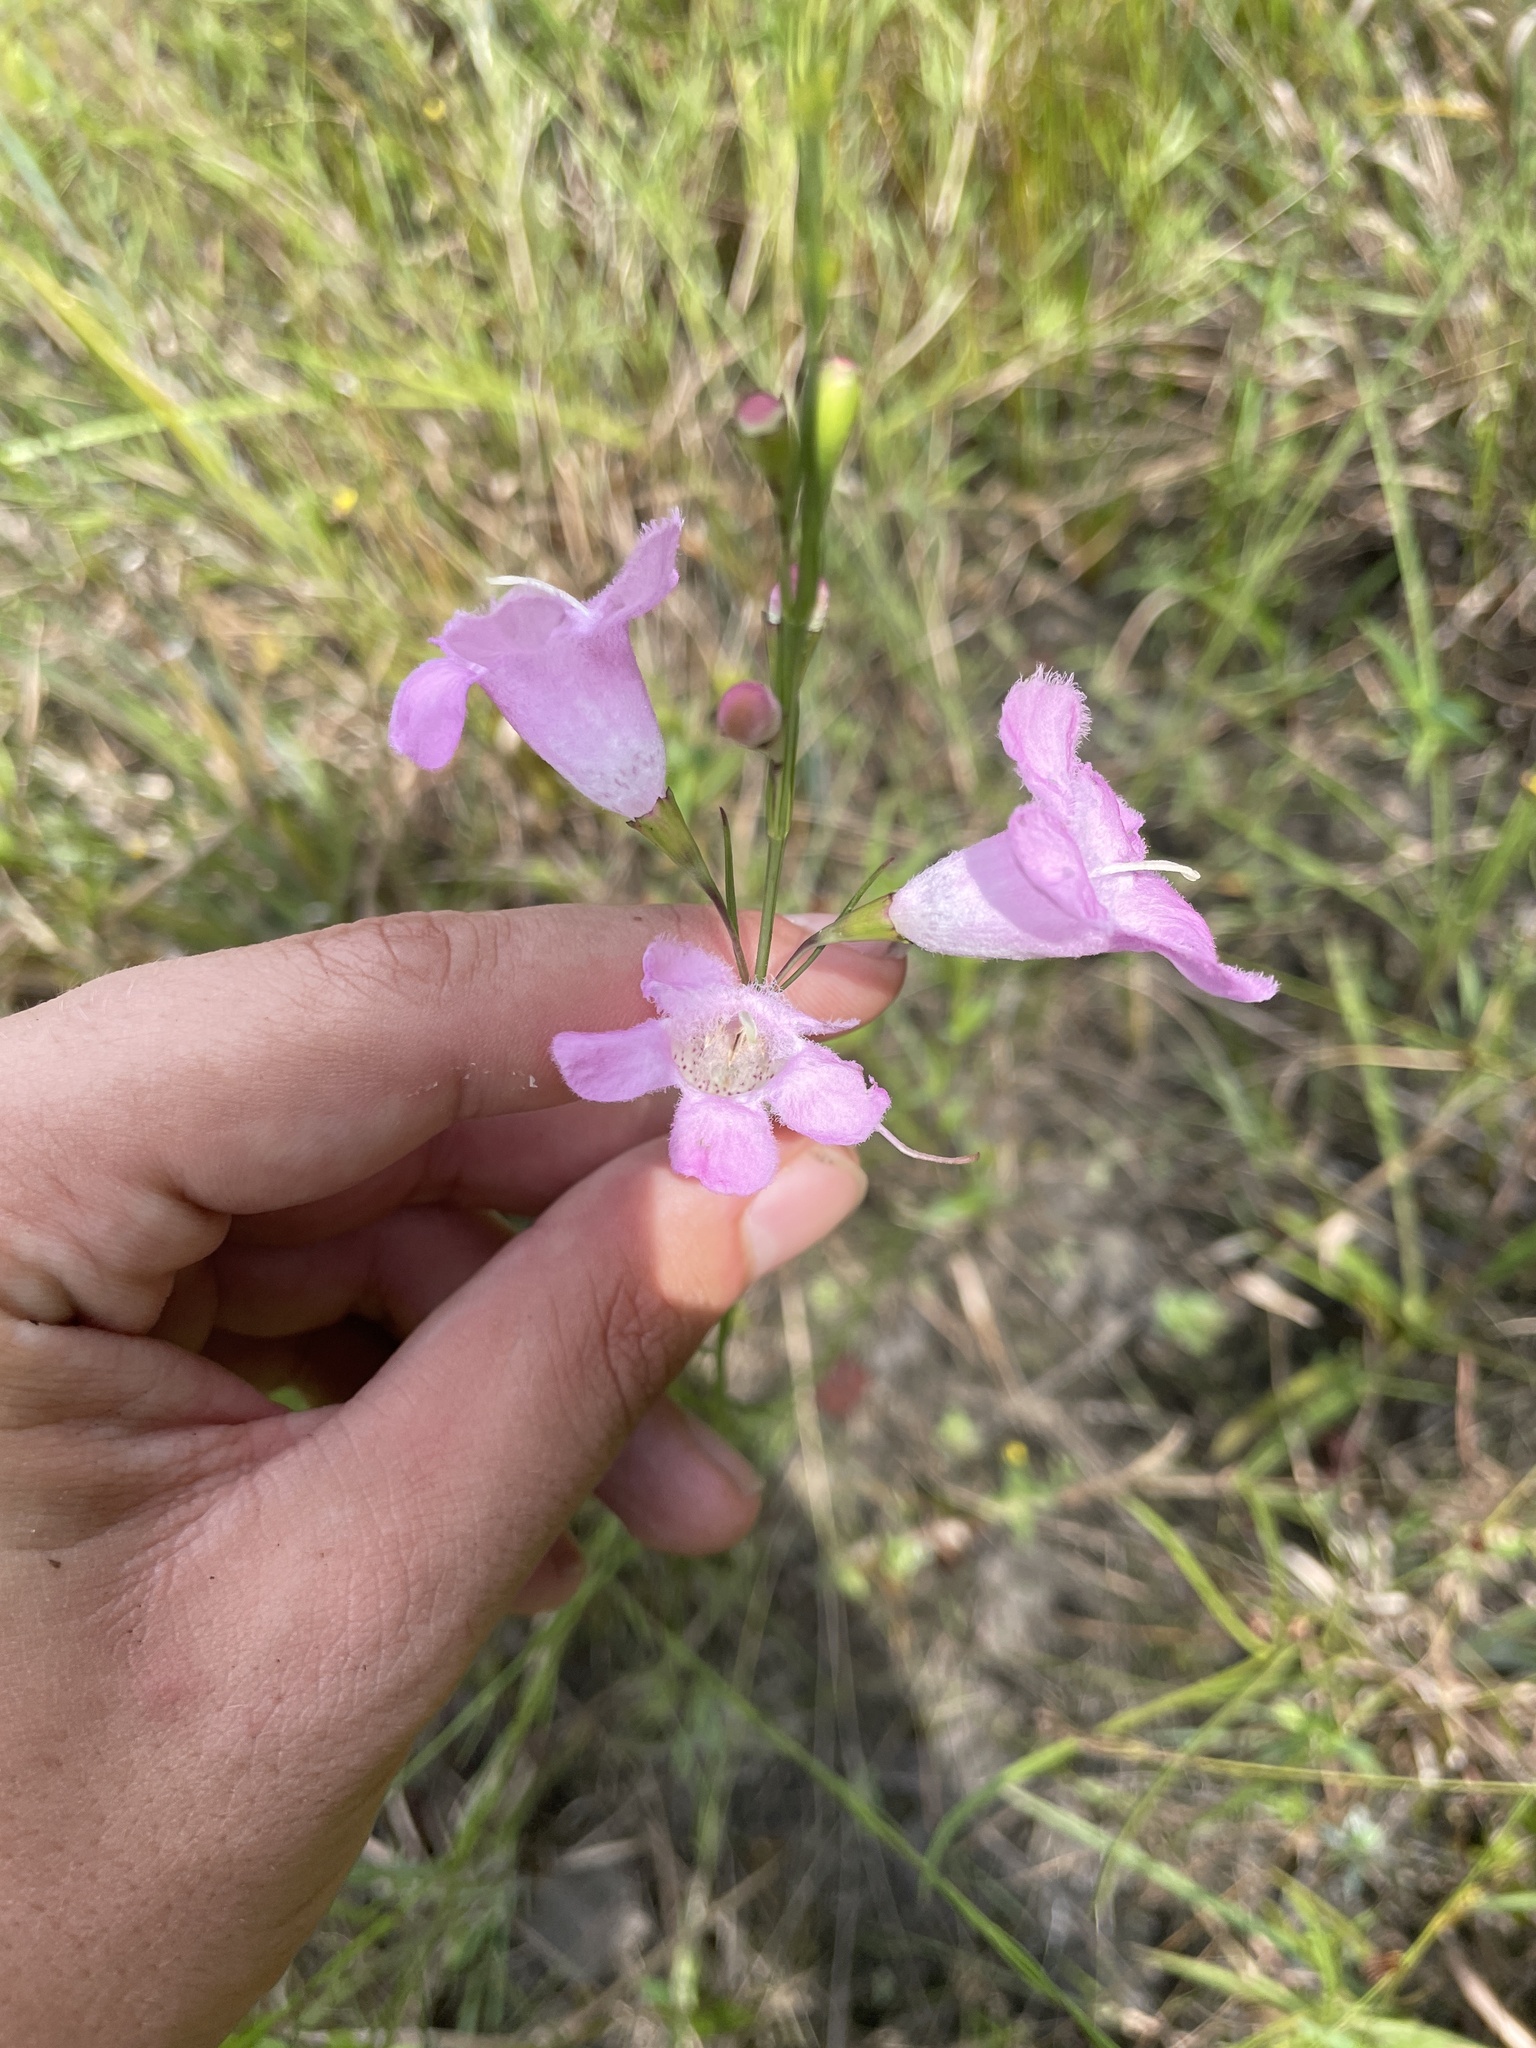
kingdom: Plantae
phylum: Tracheophyta
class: Magnoliopsida
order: Lamiales
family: Orobanchaceae
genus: Agalinis
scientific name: Agalinis linifolia
